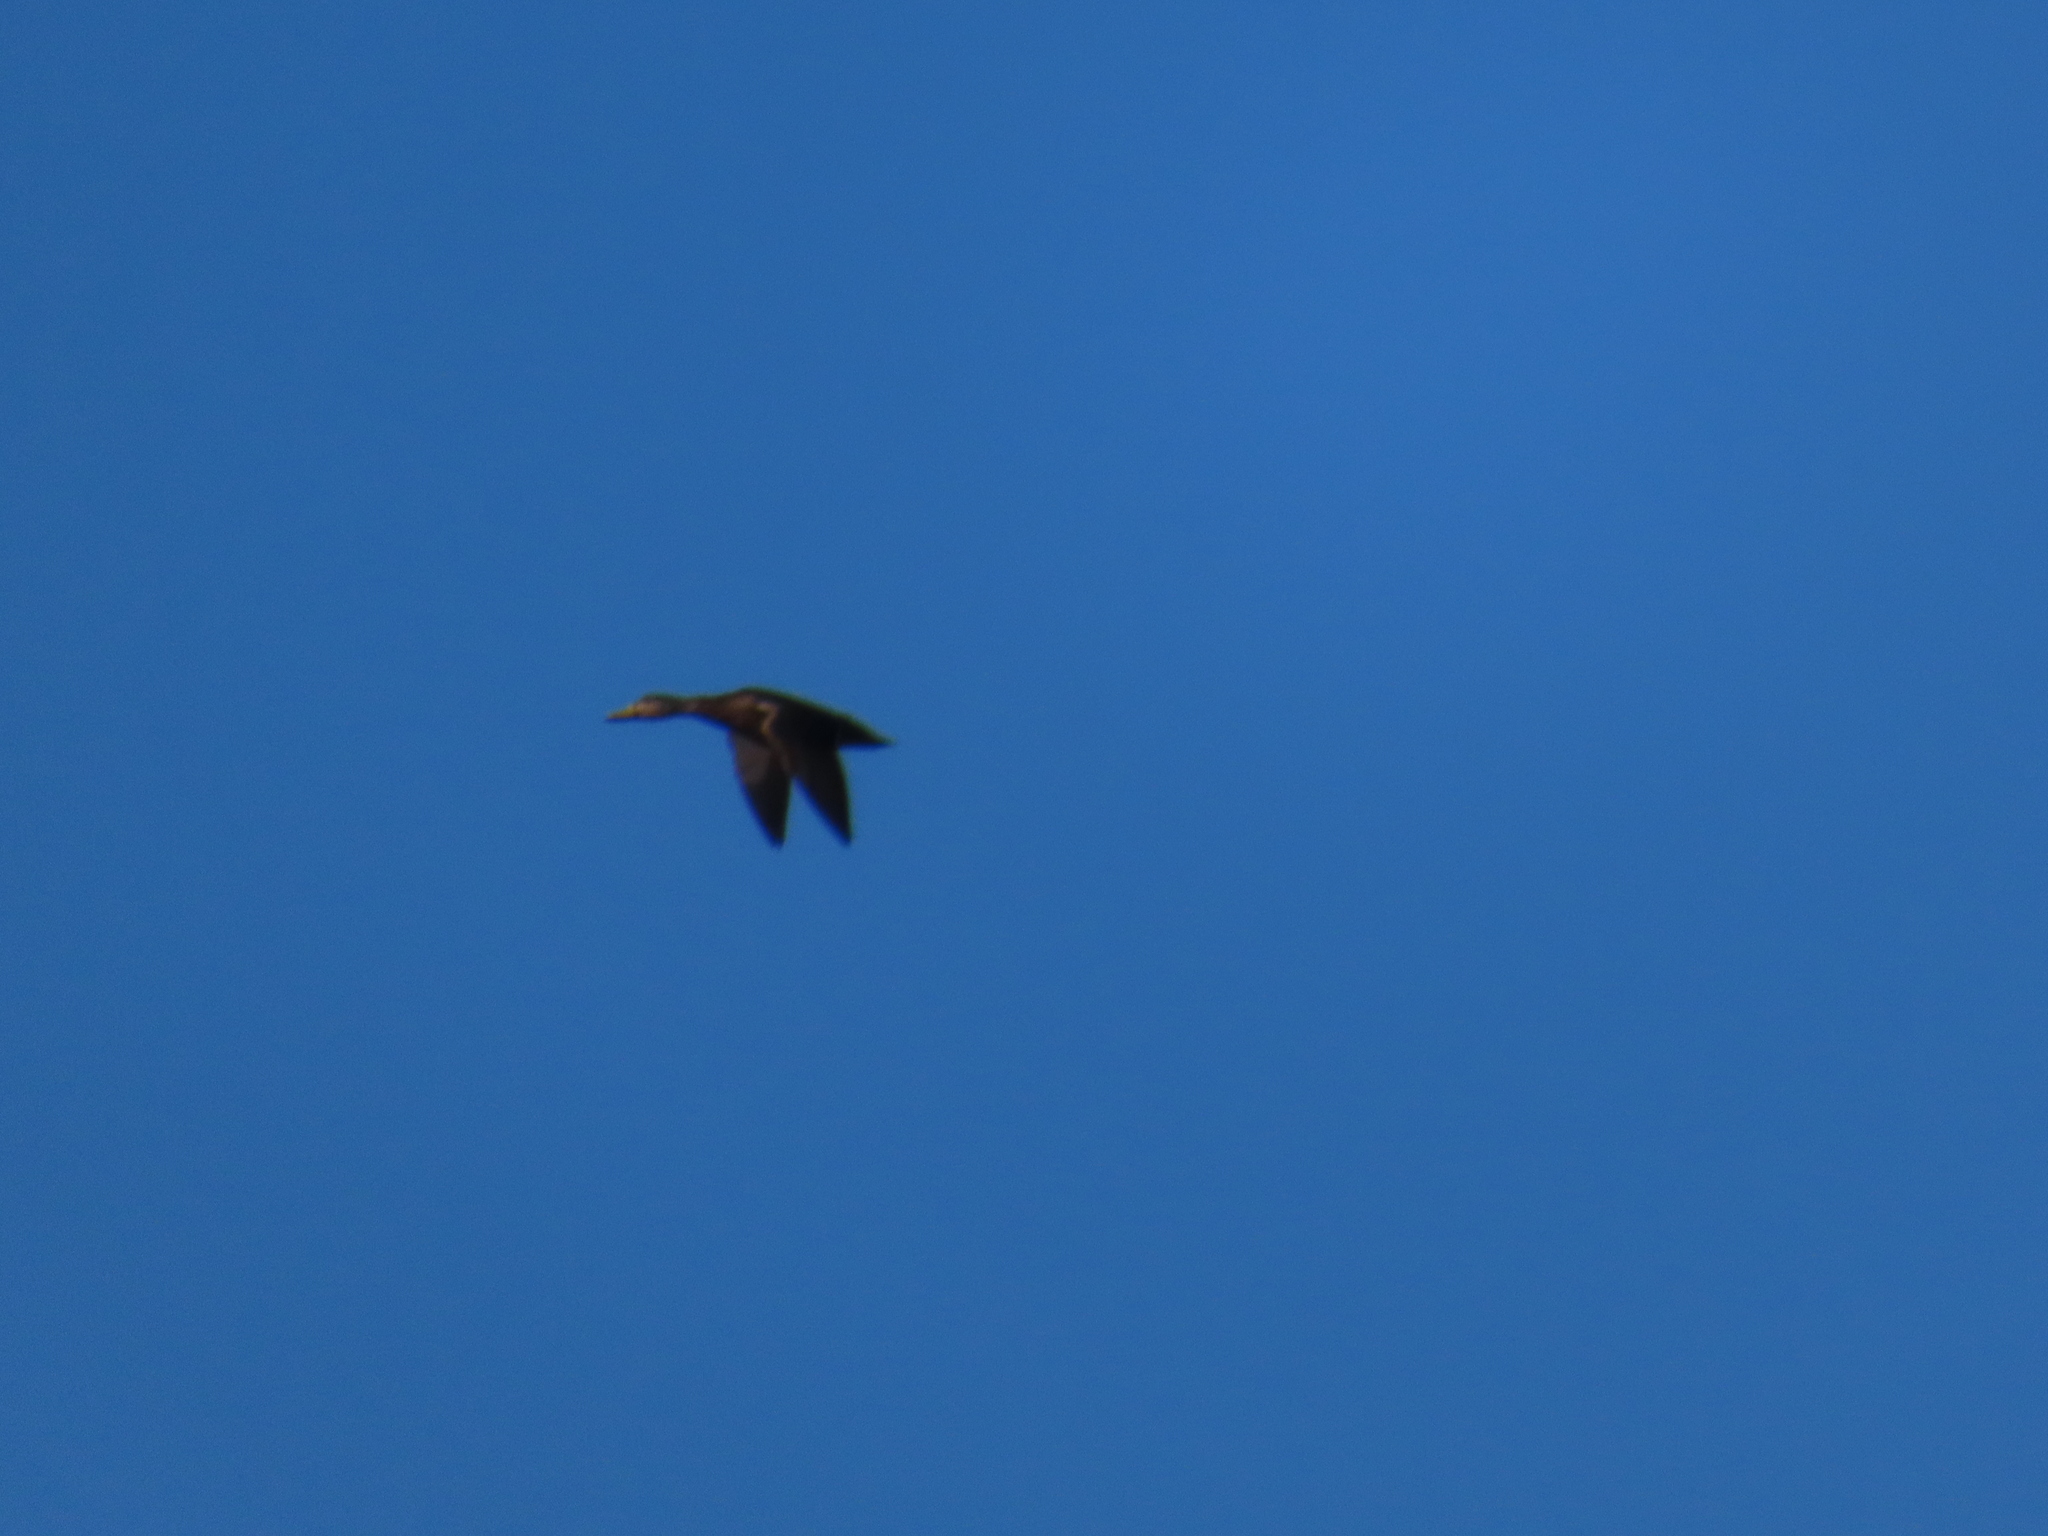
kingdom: Animalia
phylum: Chordata
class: Aves
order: Anseriformes
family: Anatidae
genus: Anas
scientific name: Anas rubripes
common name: American black duck
